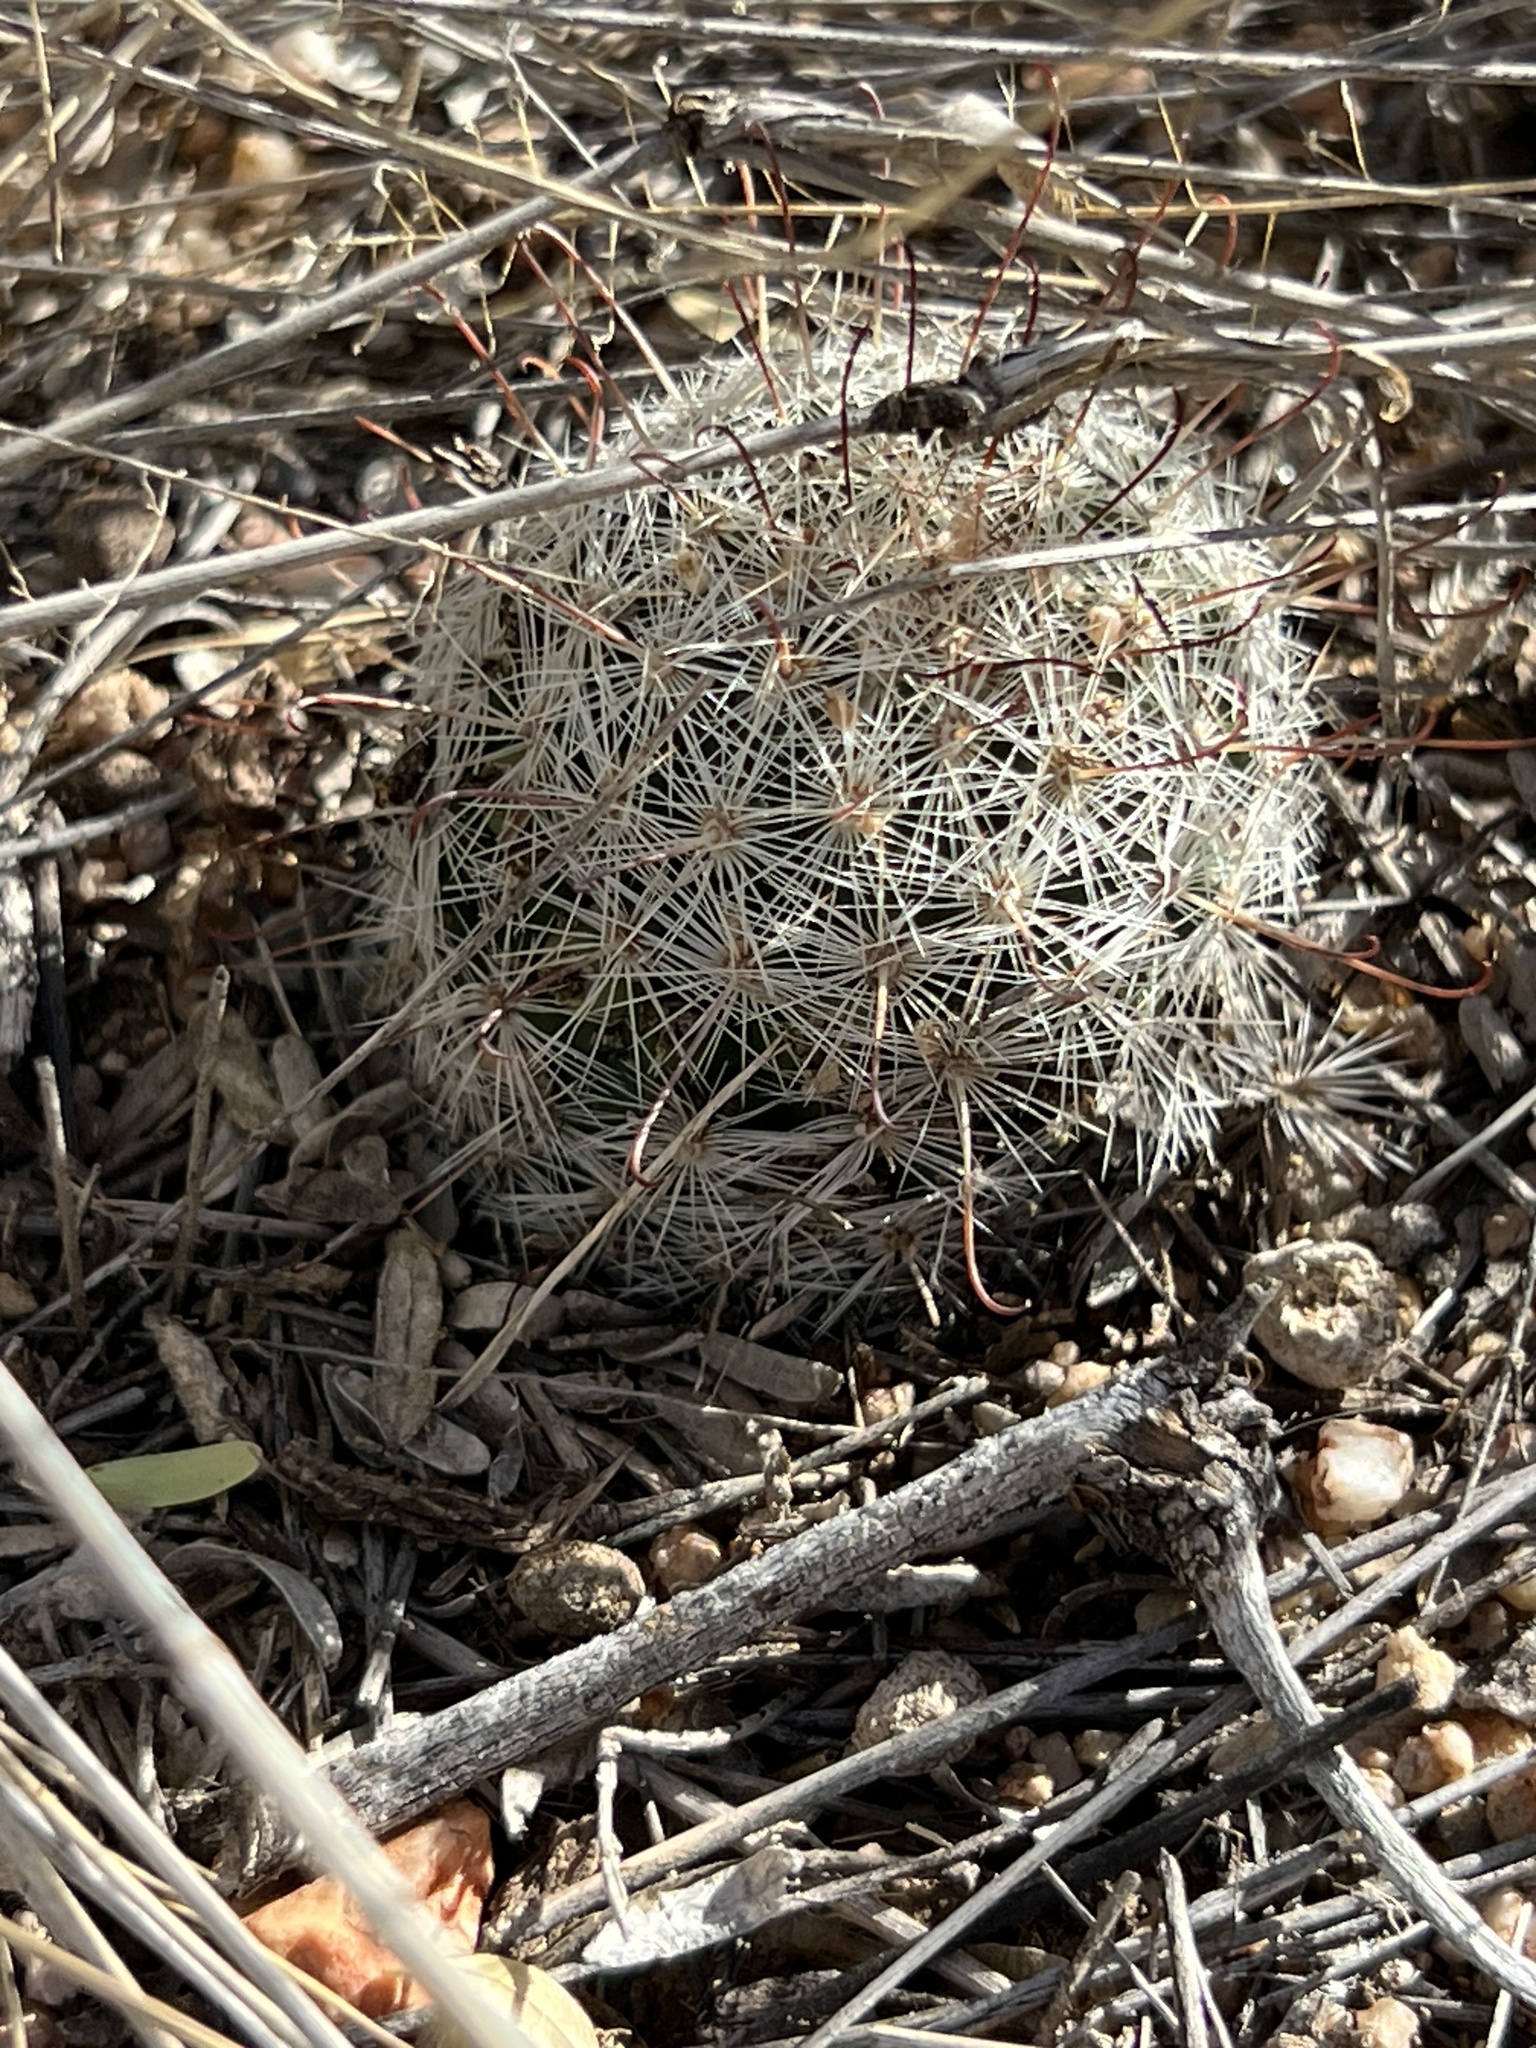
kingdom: Plantae
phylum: Tracheophyta
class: Magnoliopsida
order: Caryophyllales
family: Cactaceae
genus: Cochemiea
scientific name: Cochemiea grahamii
